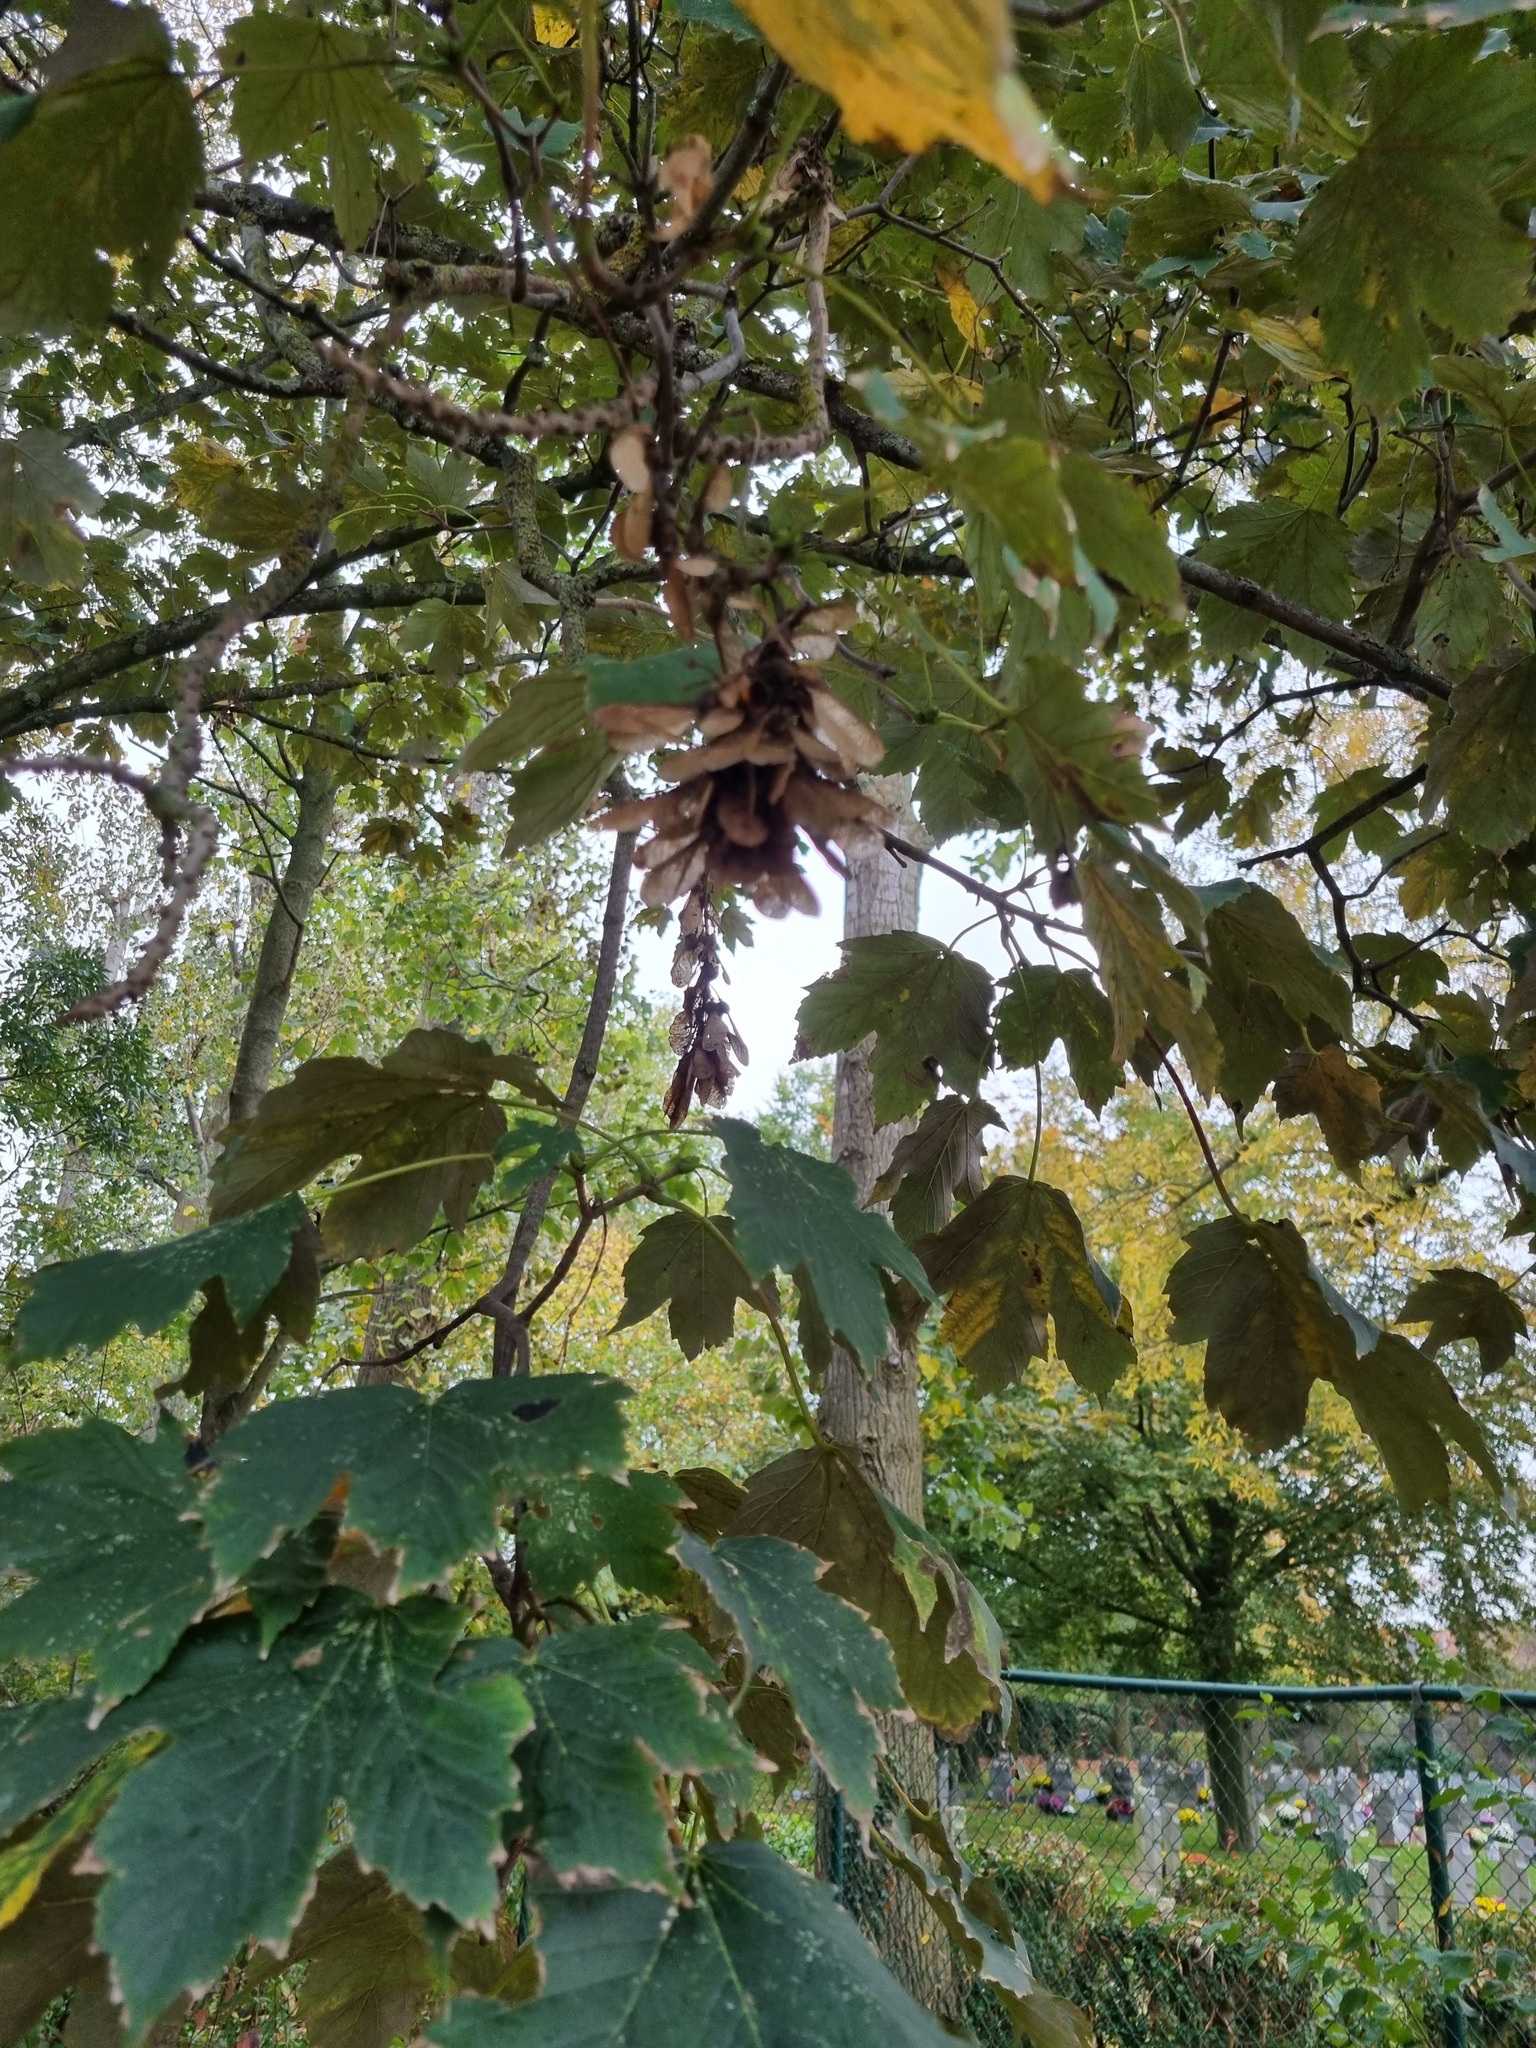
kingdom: Plantae
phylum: Tracheophyta
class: Magnoliopsida
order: Sapindales
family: Sapindaceae
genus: Acer
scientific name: Acer pseudoplatanus
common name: Sycamore
